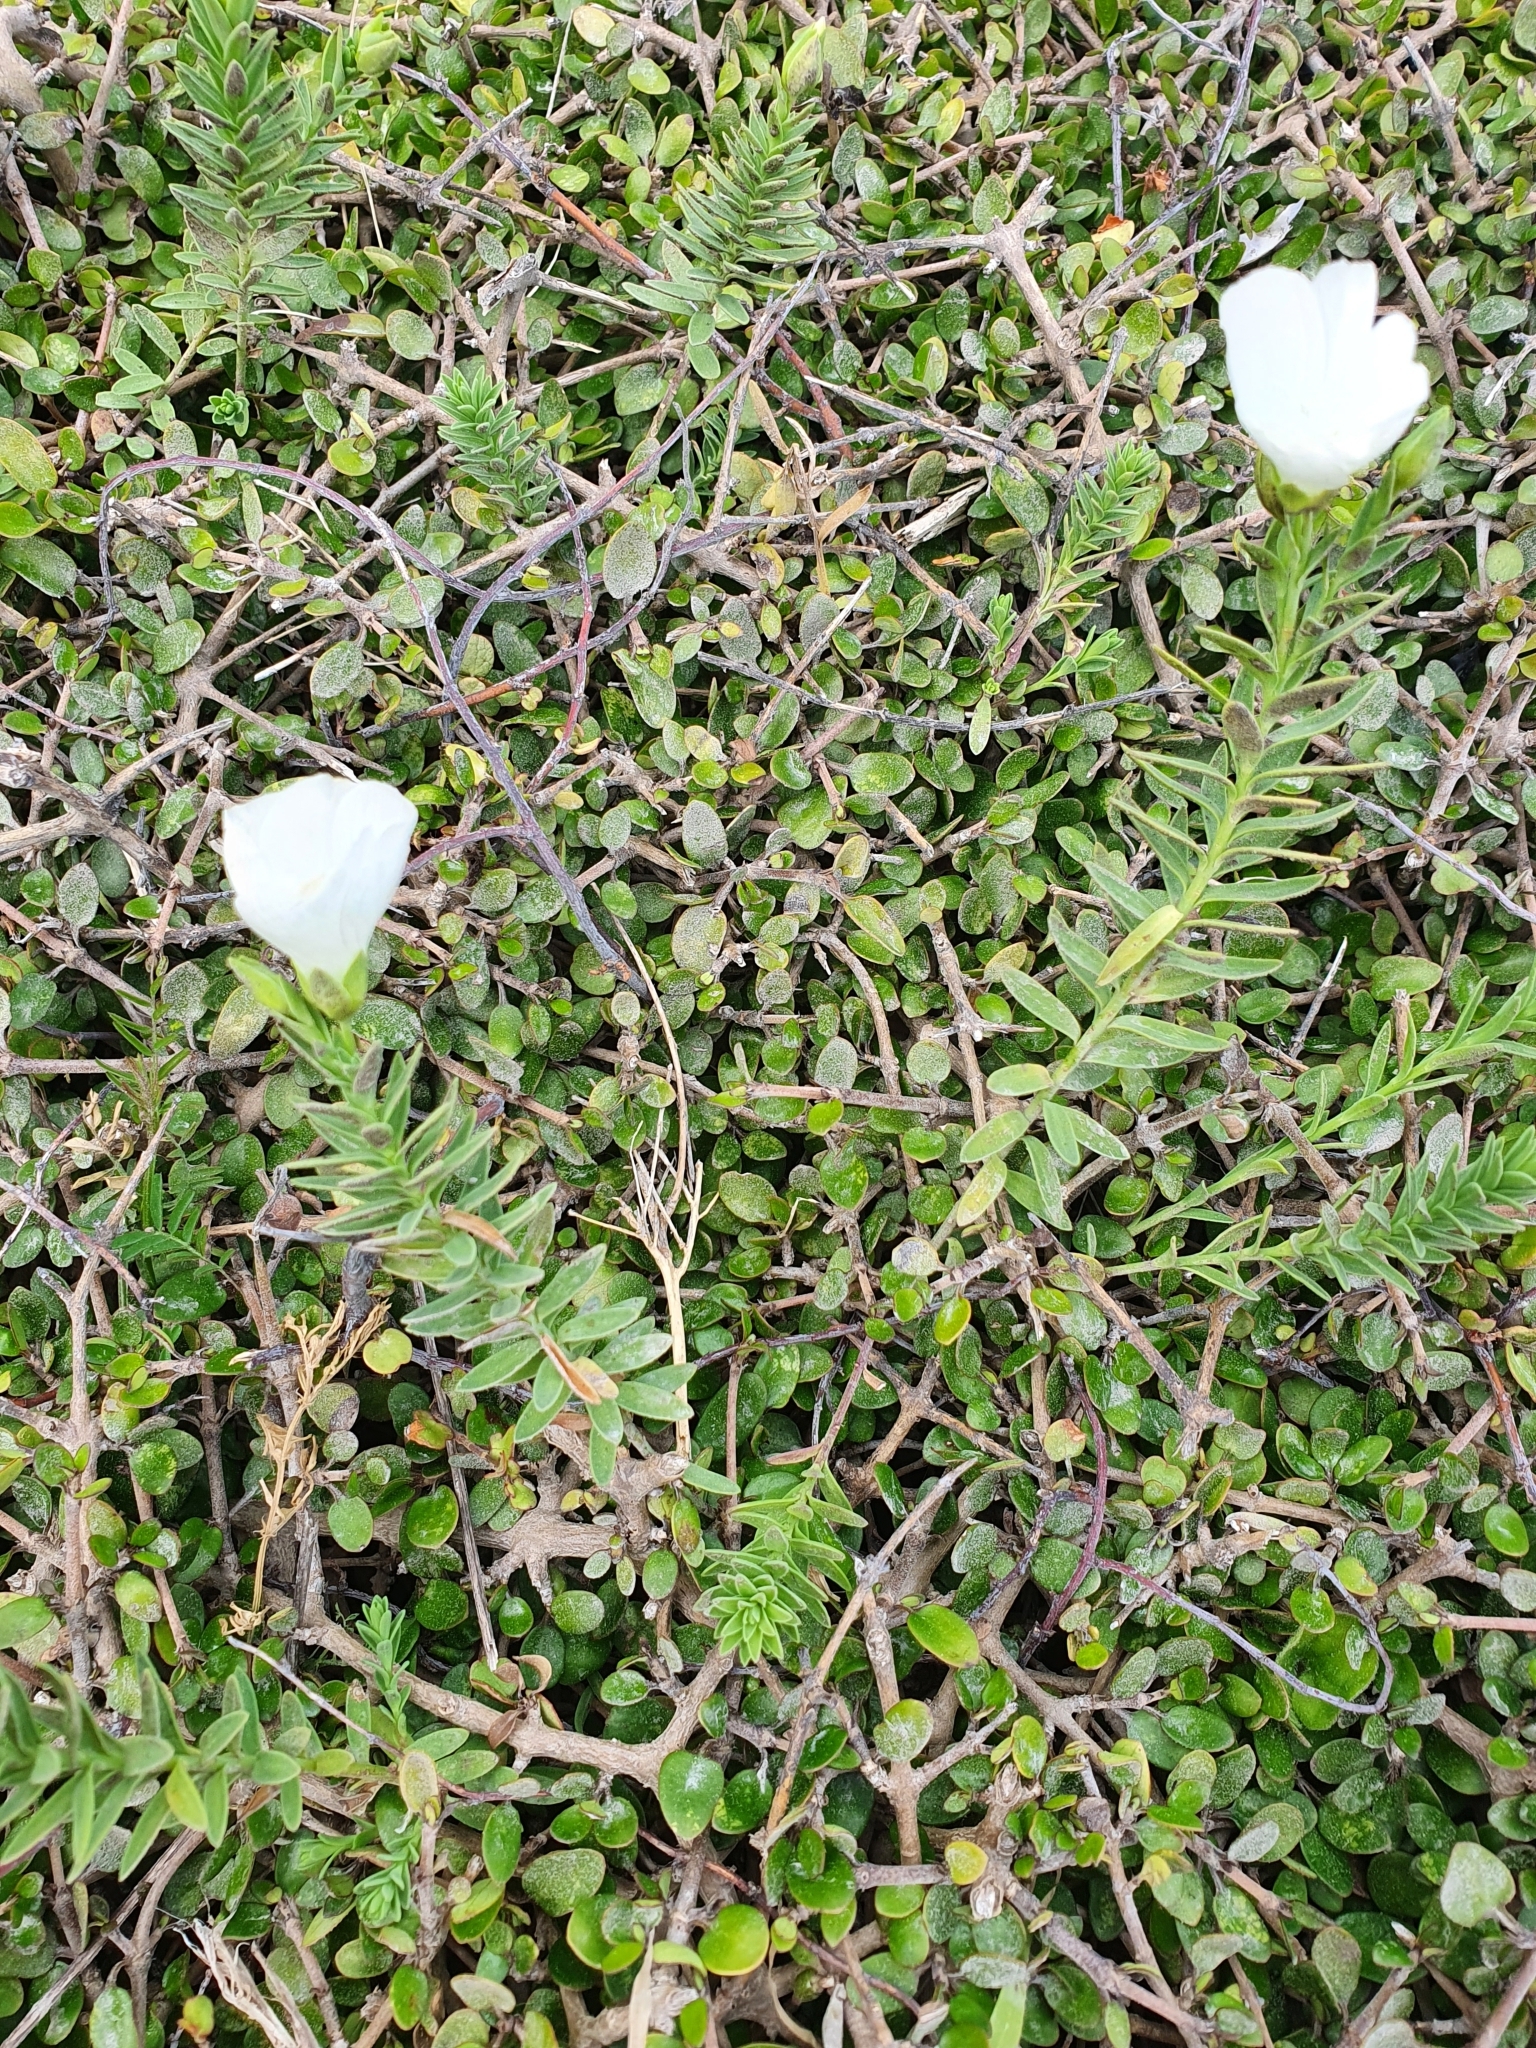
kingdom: Plantae
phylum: Tracheophyta
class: Magnoliopsida
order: Malpighiales
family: Linaceae
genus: Linum
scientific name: Linum monogynum
